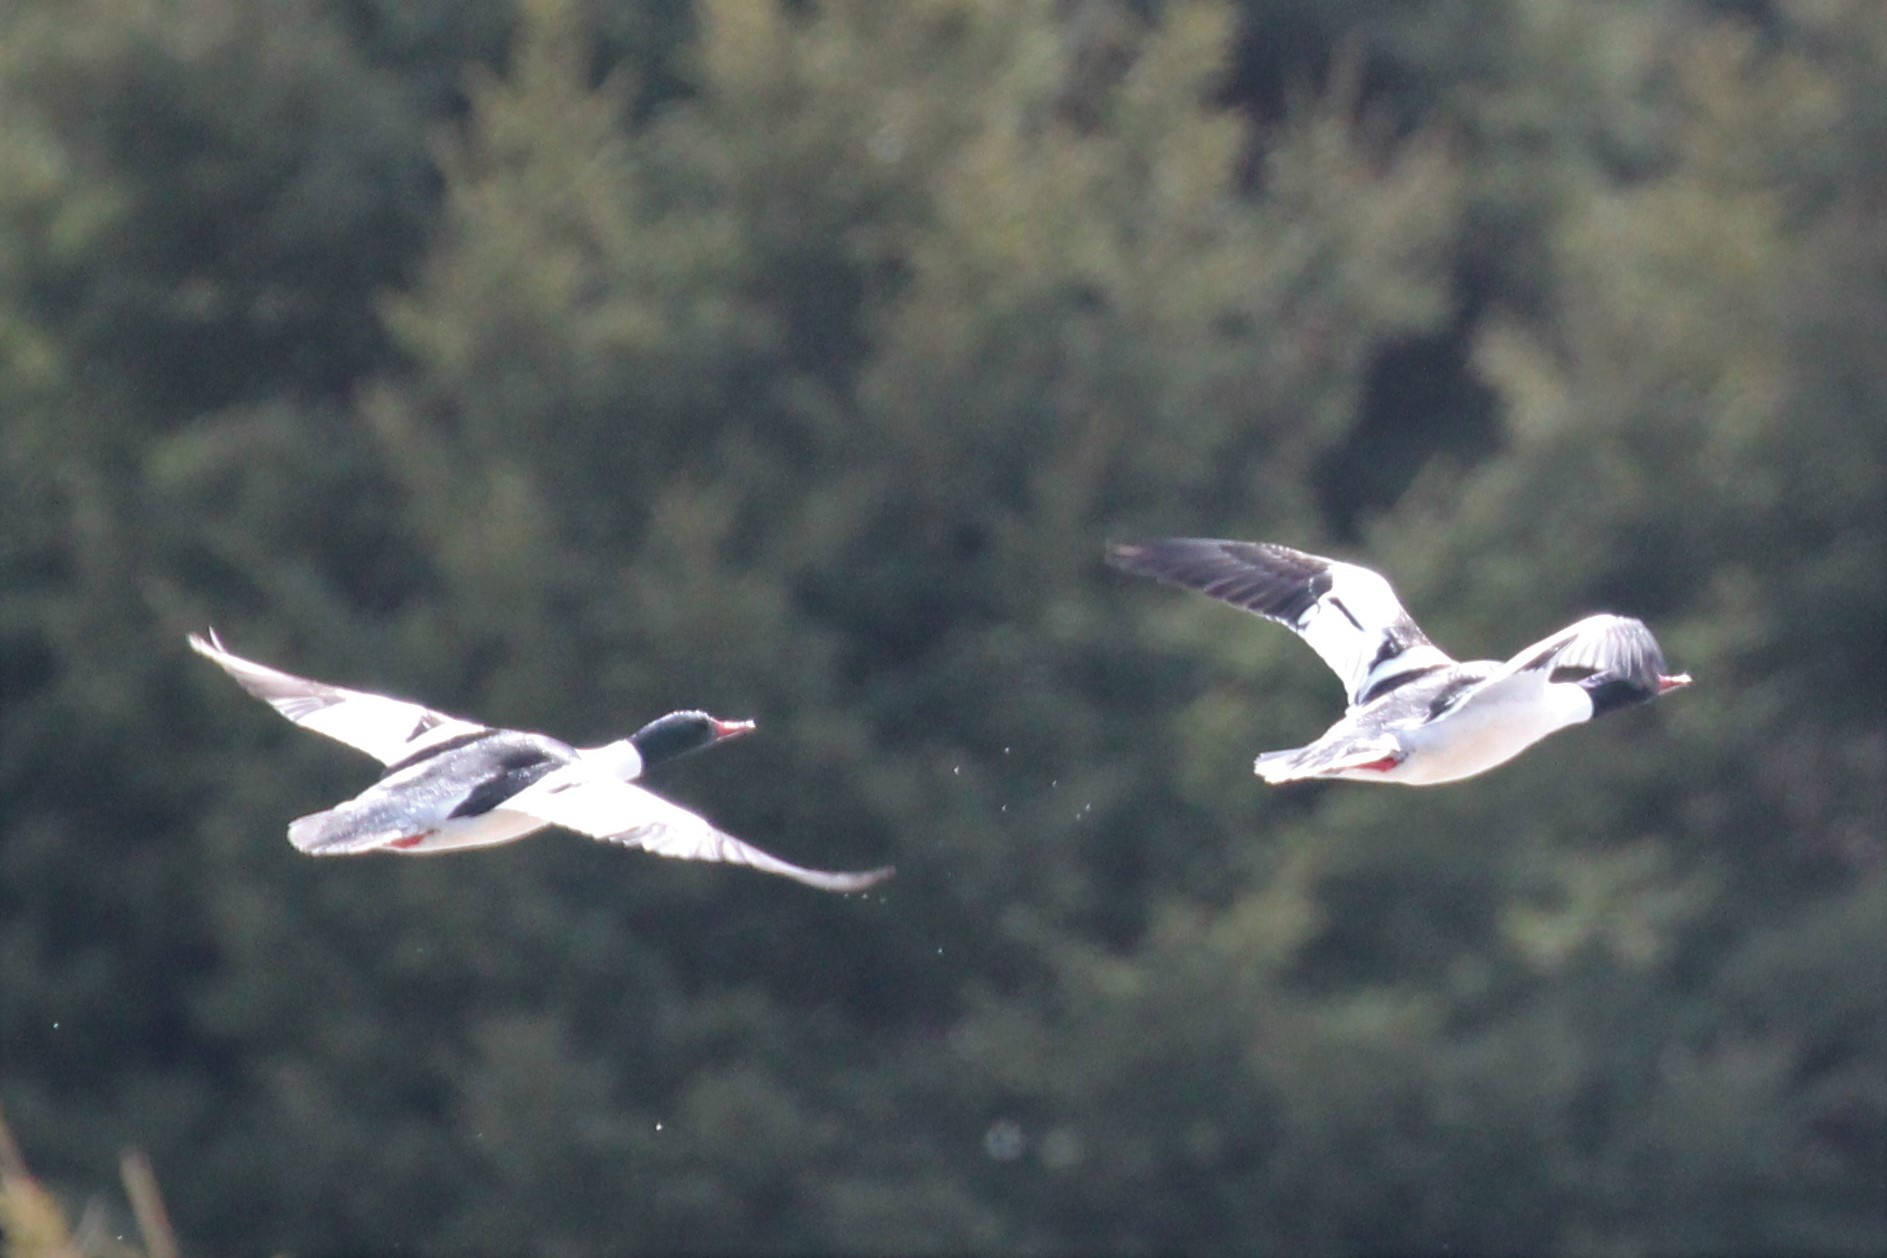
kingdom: Animalia
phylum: Chordata
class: Aves
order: Anseriformes
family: Anatidae
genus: Mergus
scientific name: Mergus merganser
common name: Common merganser
